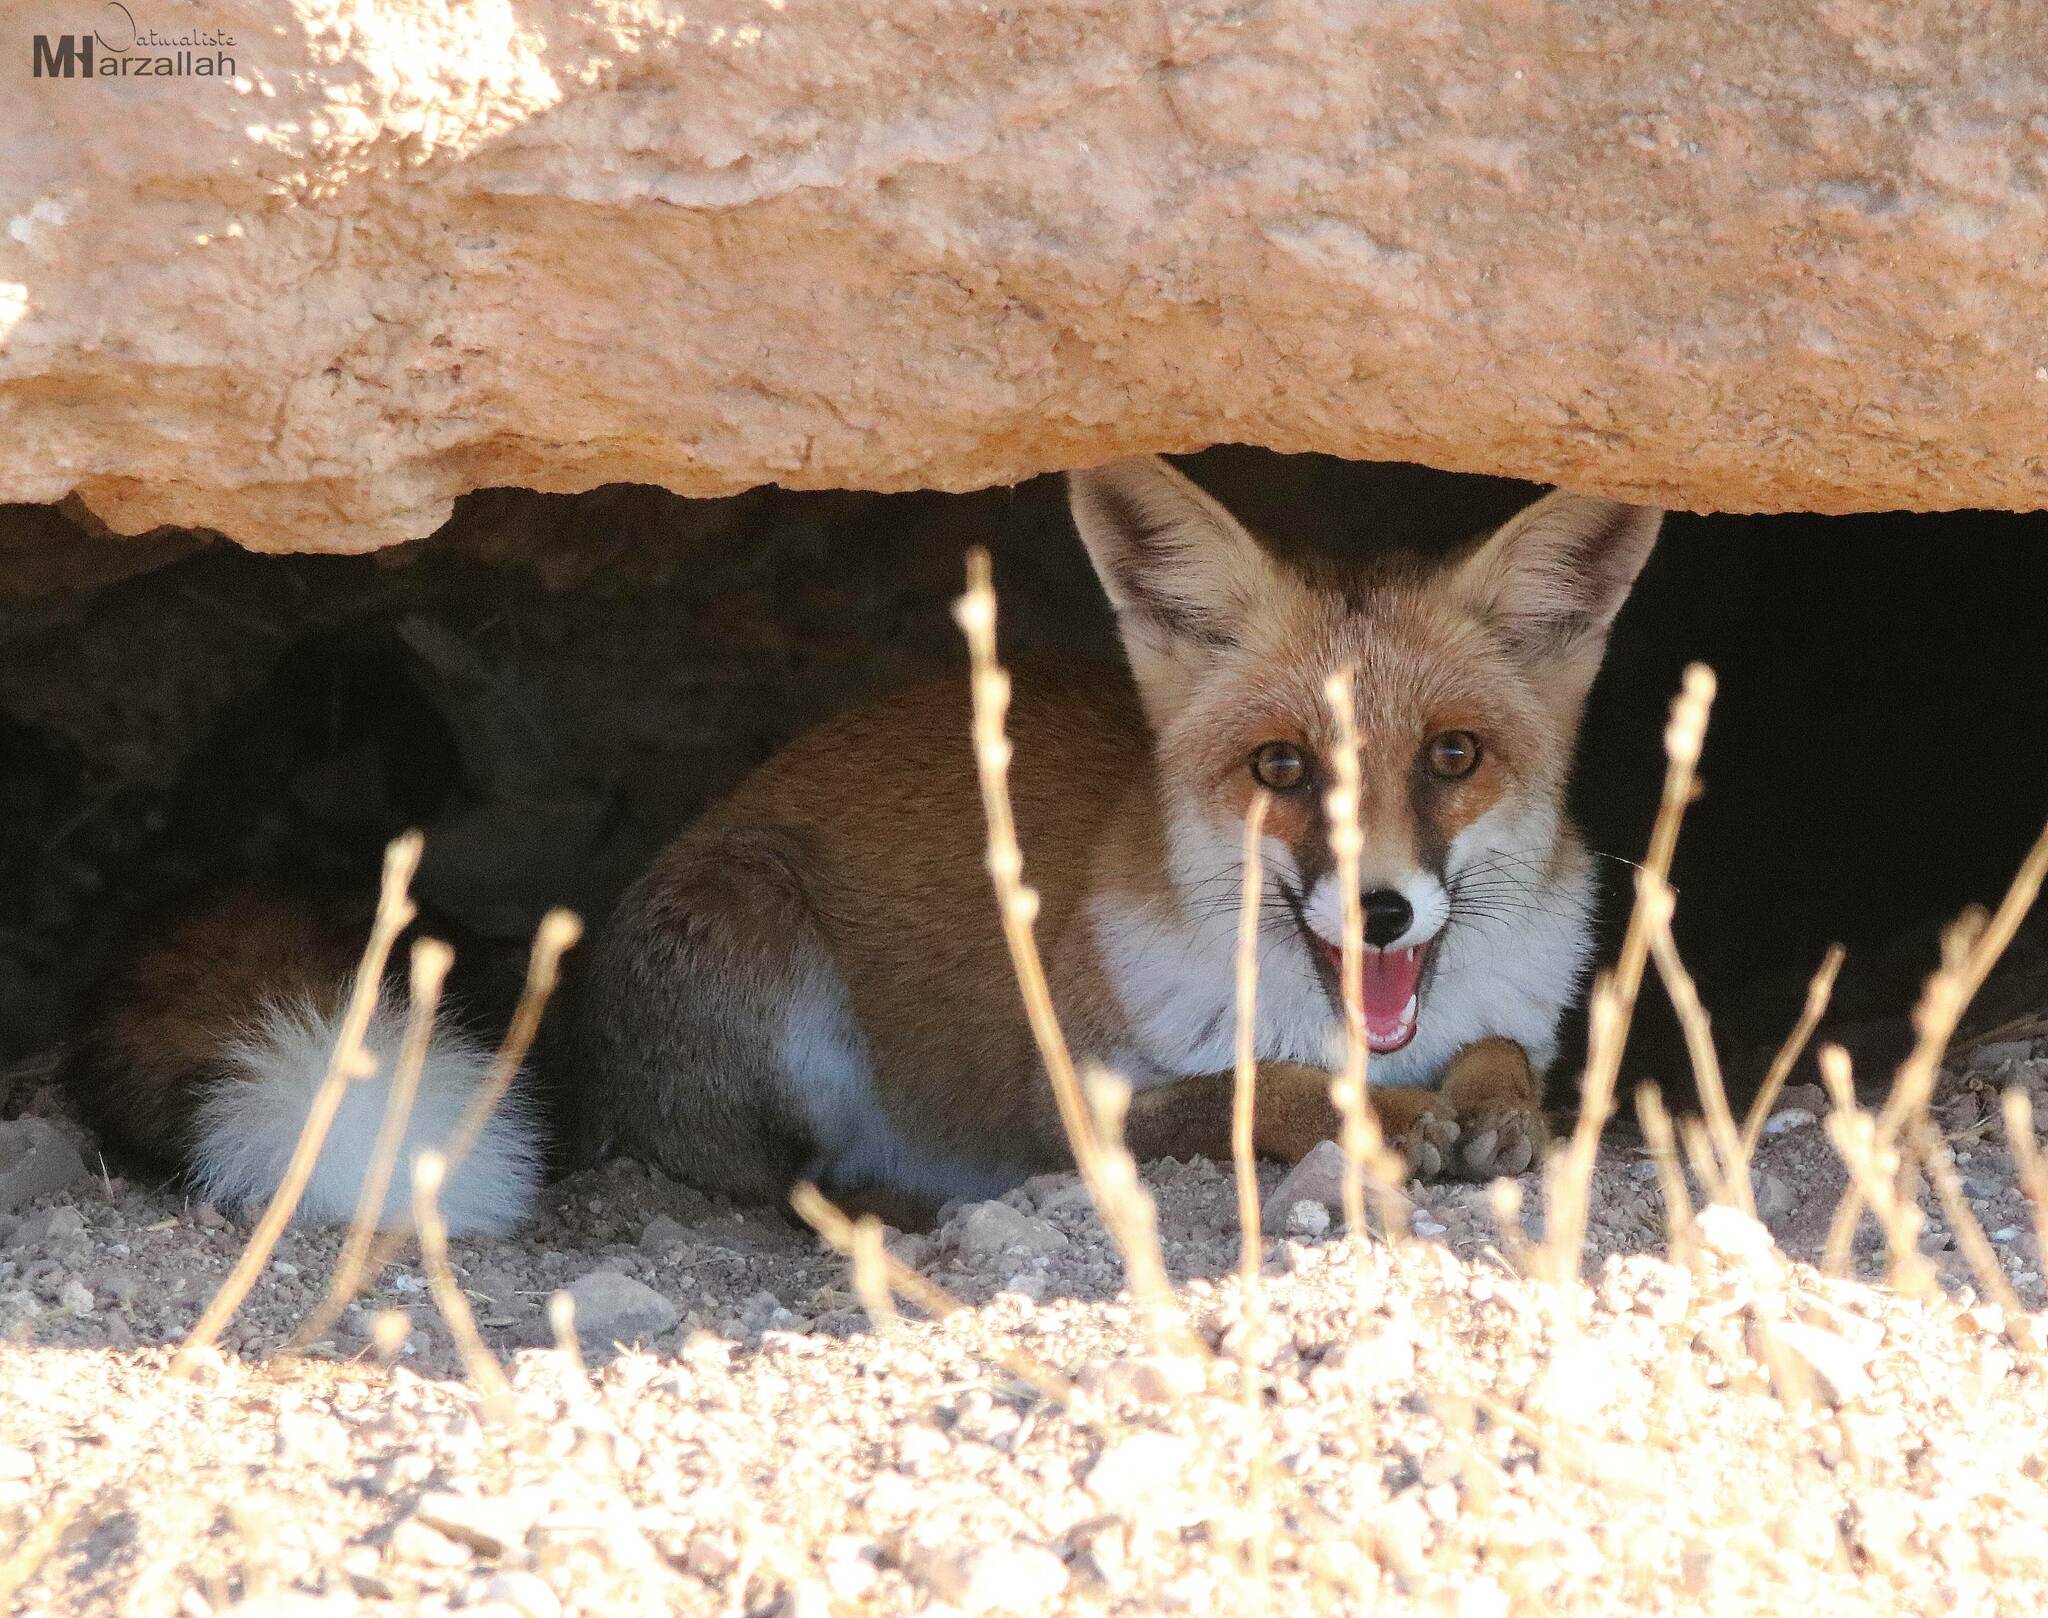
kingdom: Animalia
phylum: Chordata
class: Mammalia
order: Carnivora
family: Canidae
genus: Vulpes
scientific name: Vulpes vulpes
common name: Red fox
